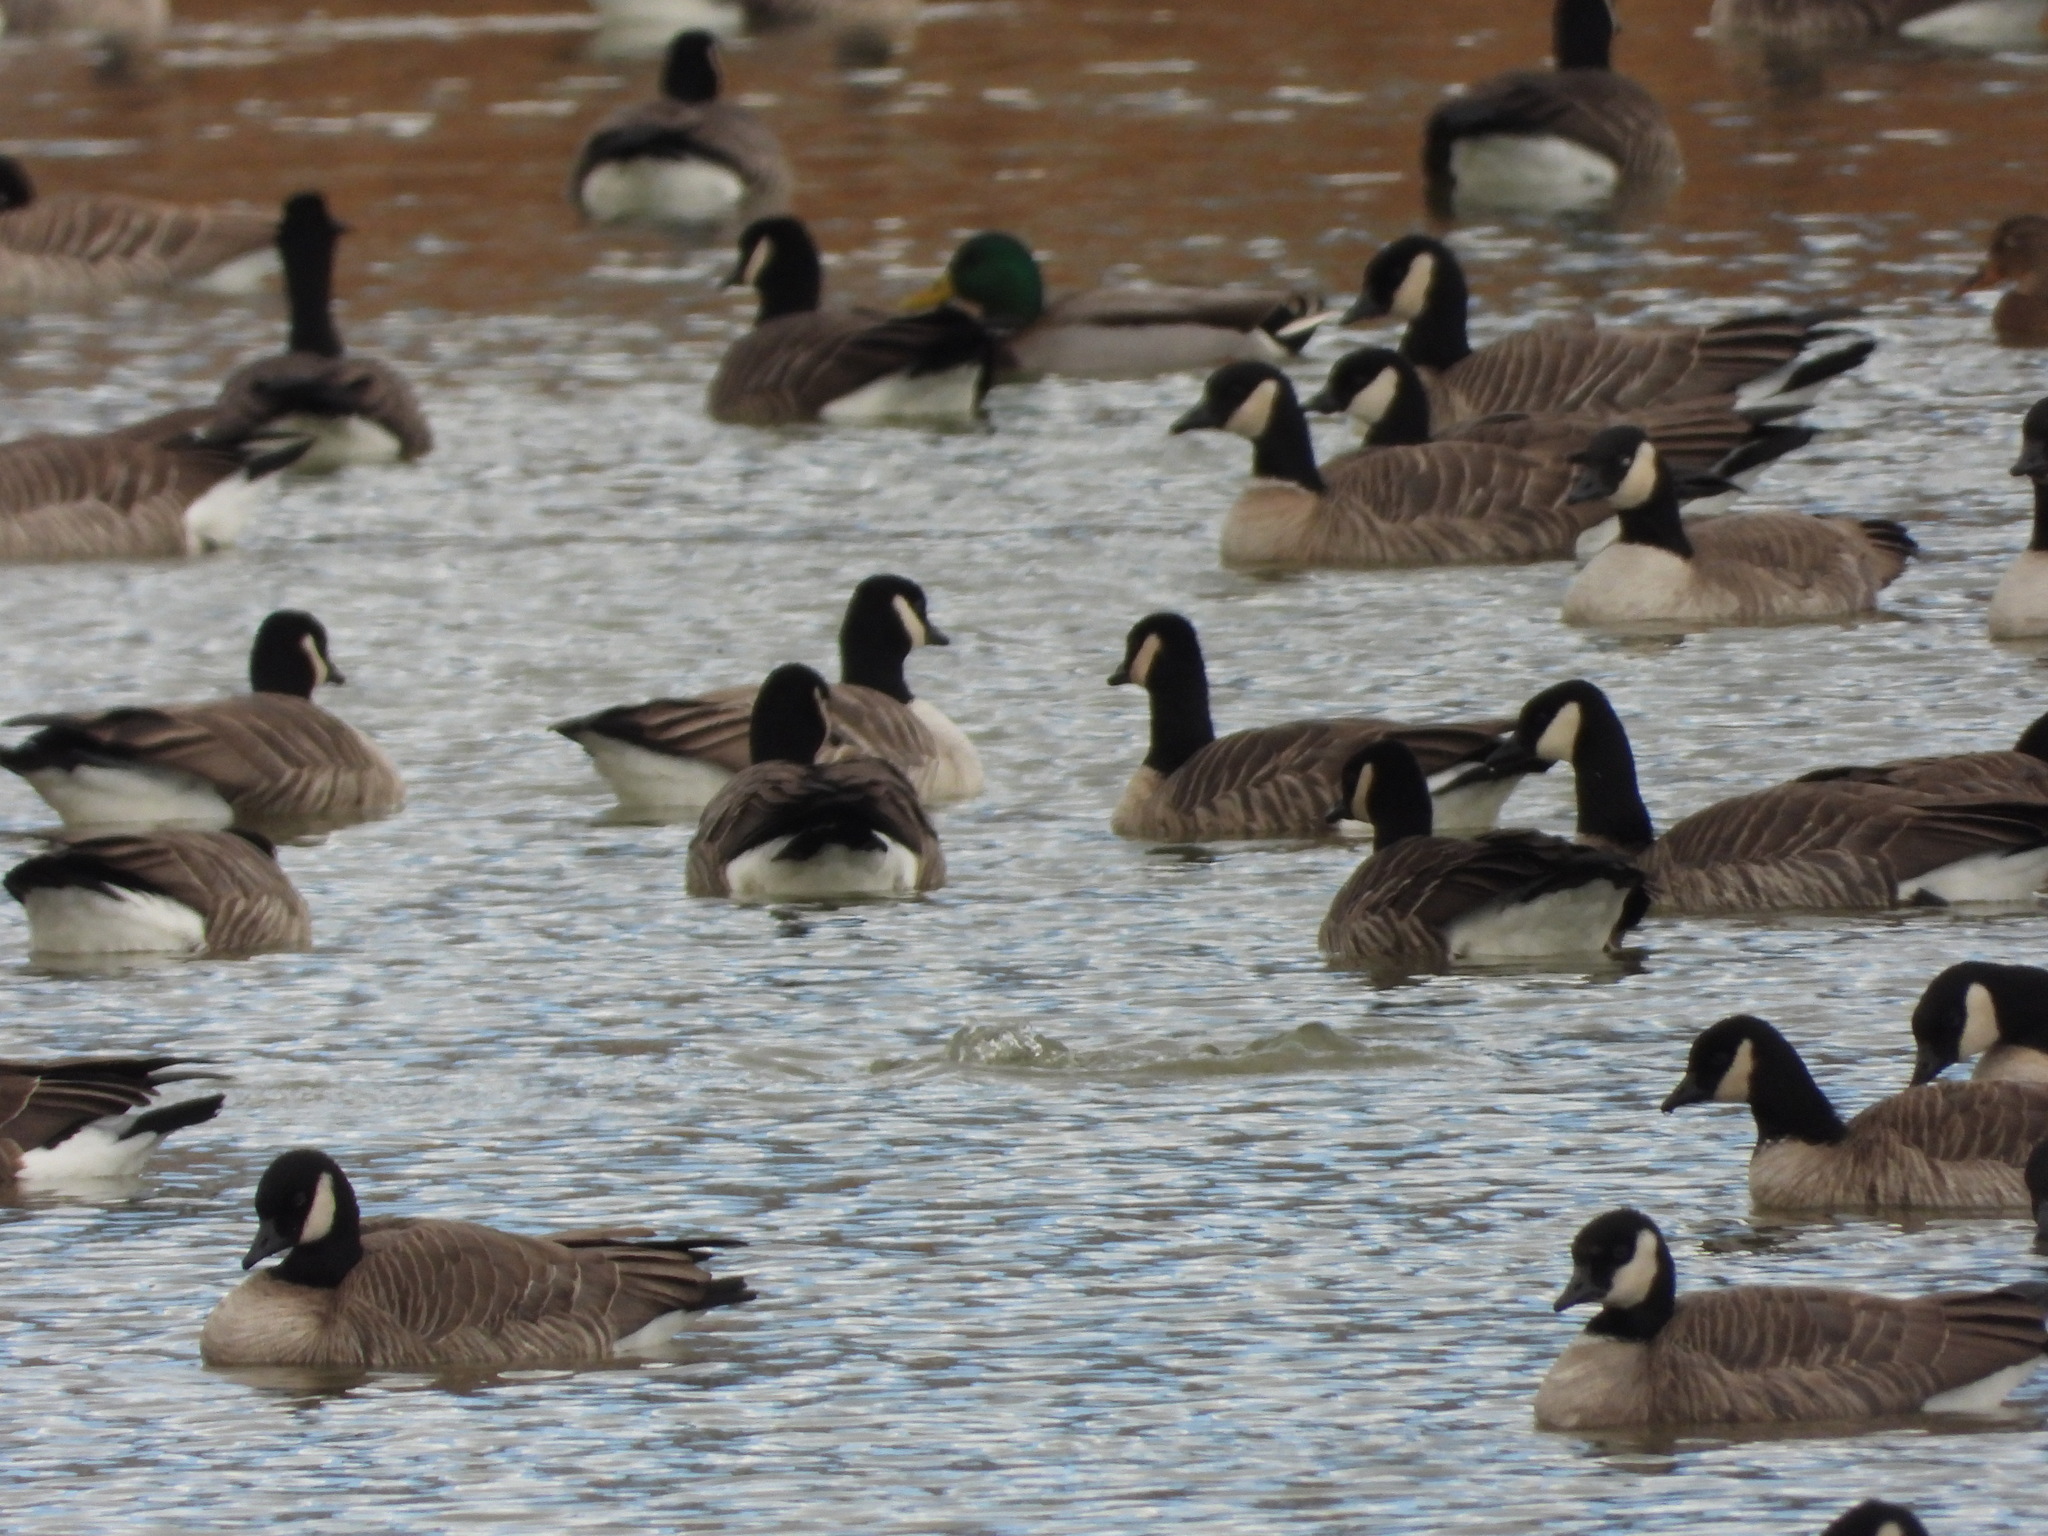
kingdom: Animalia
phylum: Chordata
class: Aves
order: Anseriformes
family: Anatidae
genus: Branta
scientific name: Branta hutchinsii
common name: Cackling goose
